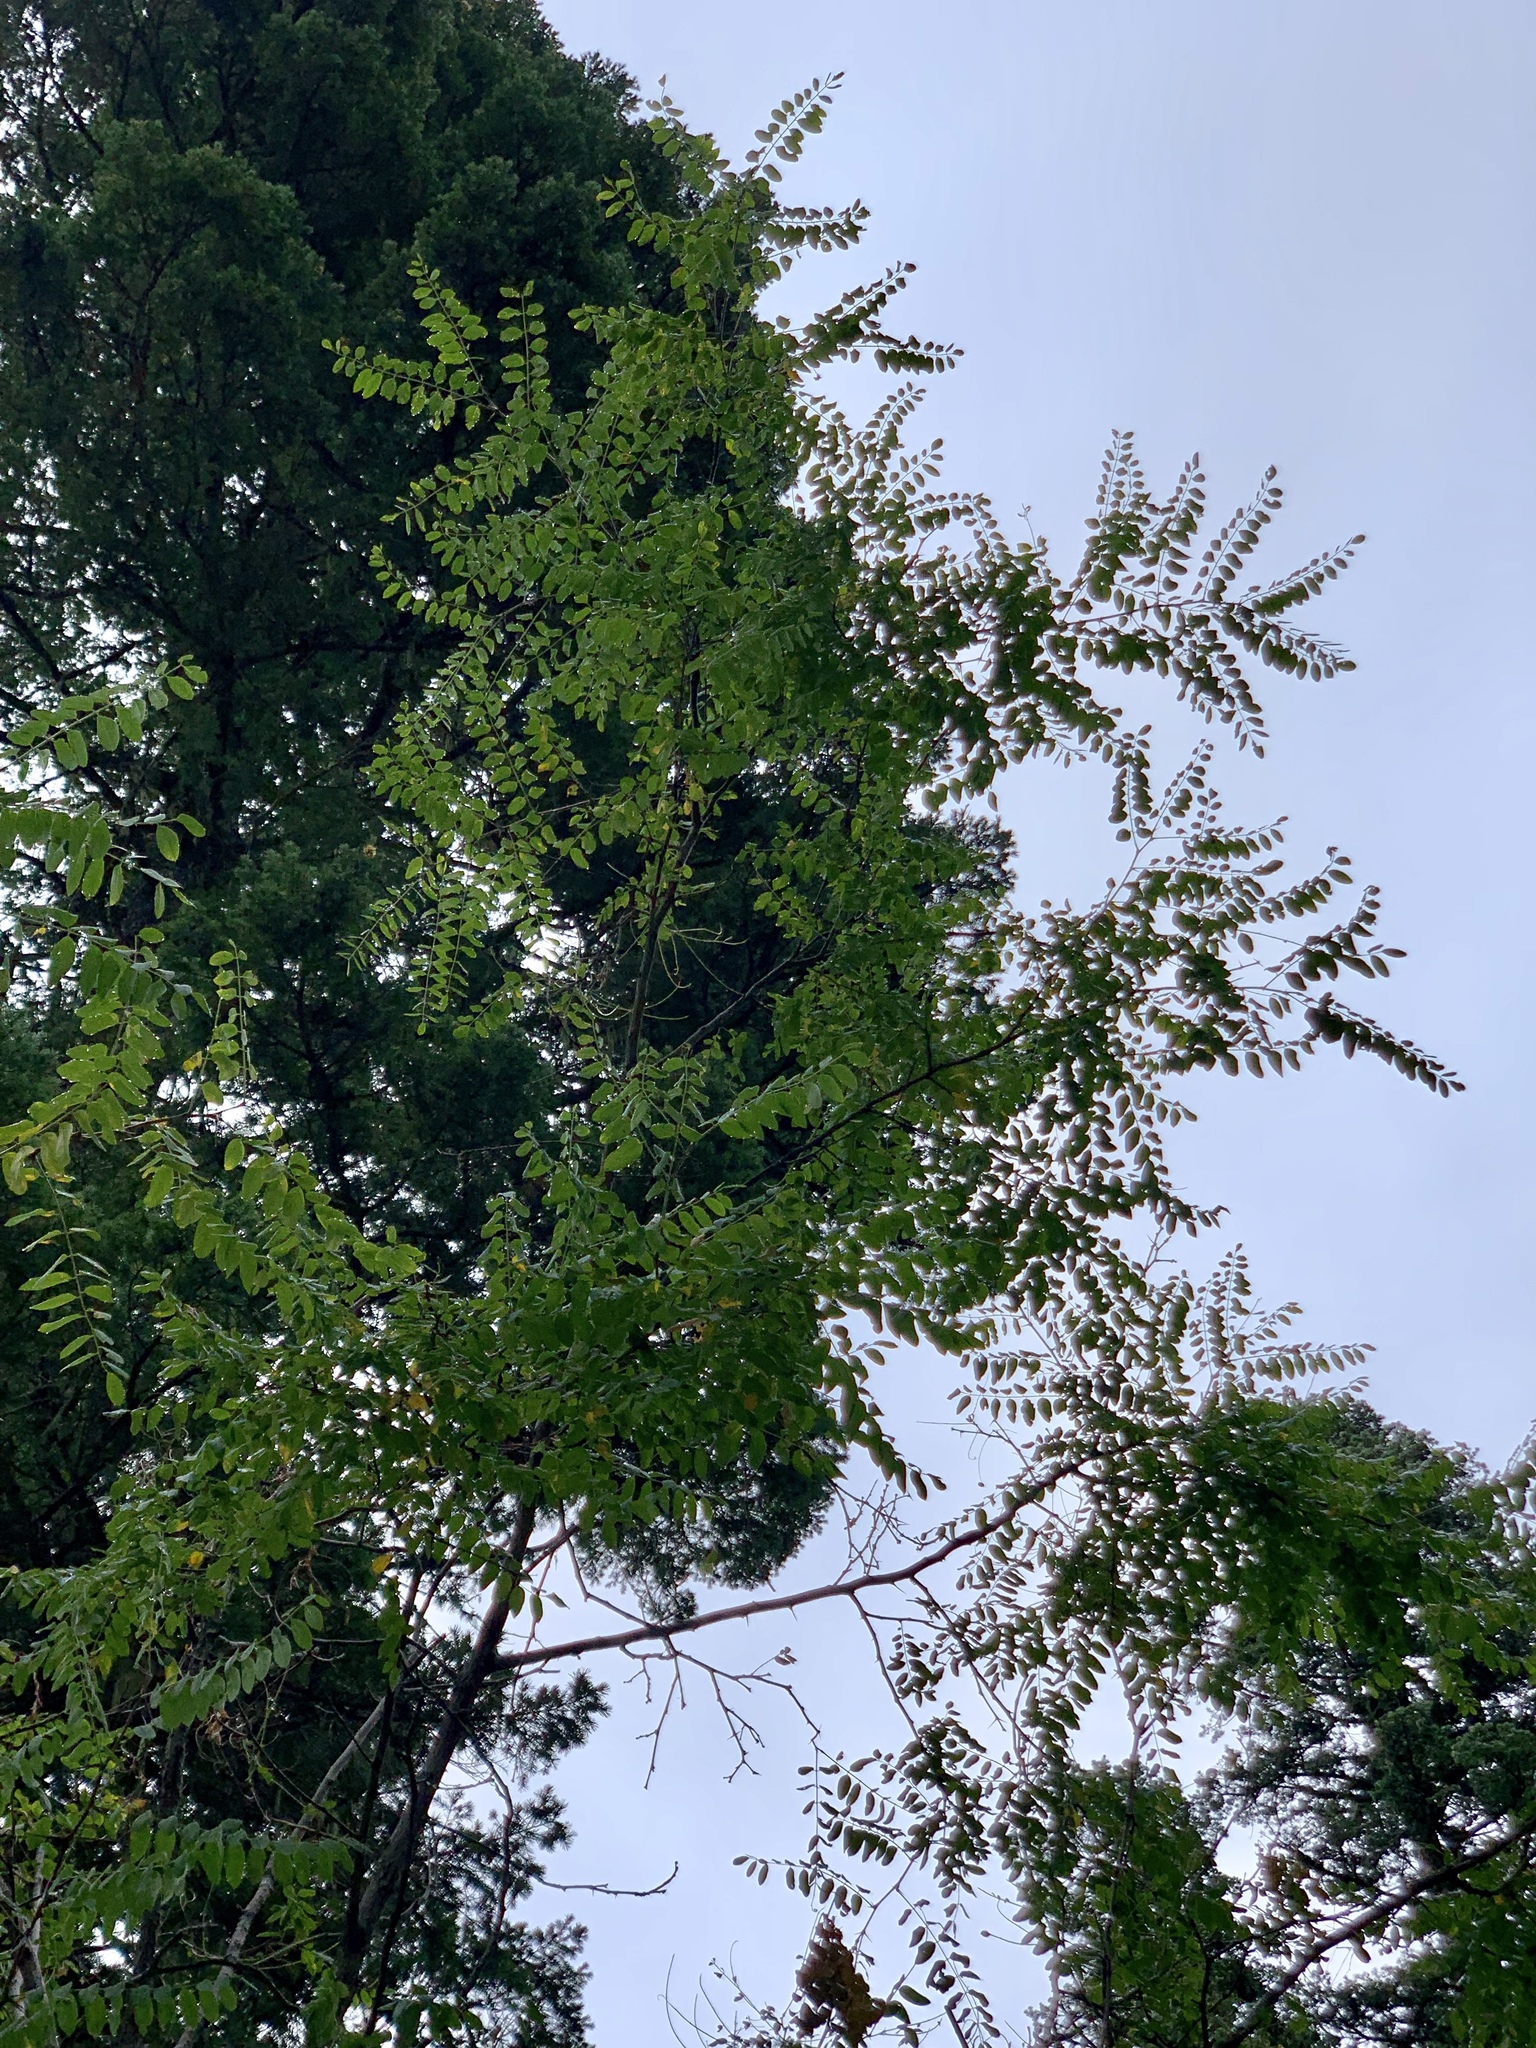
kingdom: Plantae
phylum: Tracheophyta
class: Magnoliopsida
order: Fabales
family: Fabaceae
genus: Robinia
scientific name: Robinia neomexicana
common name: New mexico locust
